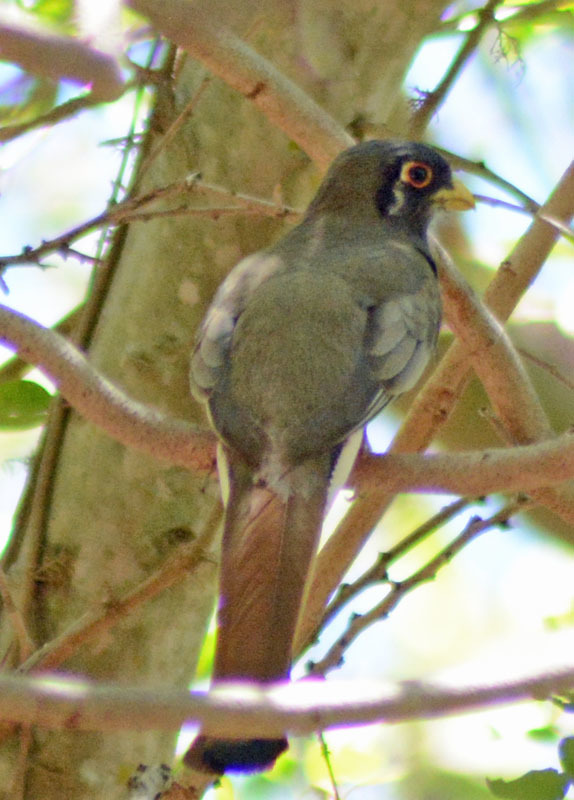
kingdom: Animalia
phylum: Chordata
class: Aves
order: Trogoniformes
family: Trogonidae
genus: Trogon
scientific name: Trogon elegans
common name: Elegant trogon
